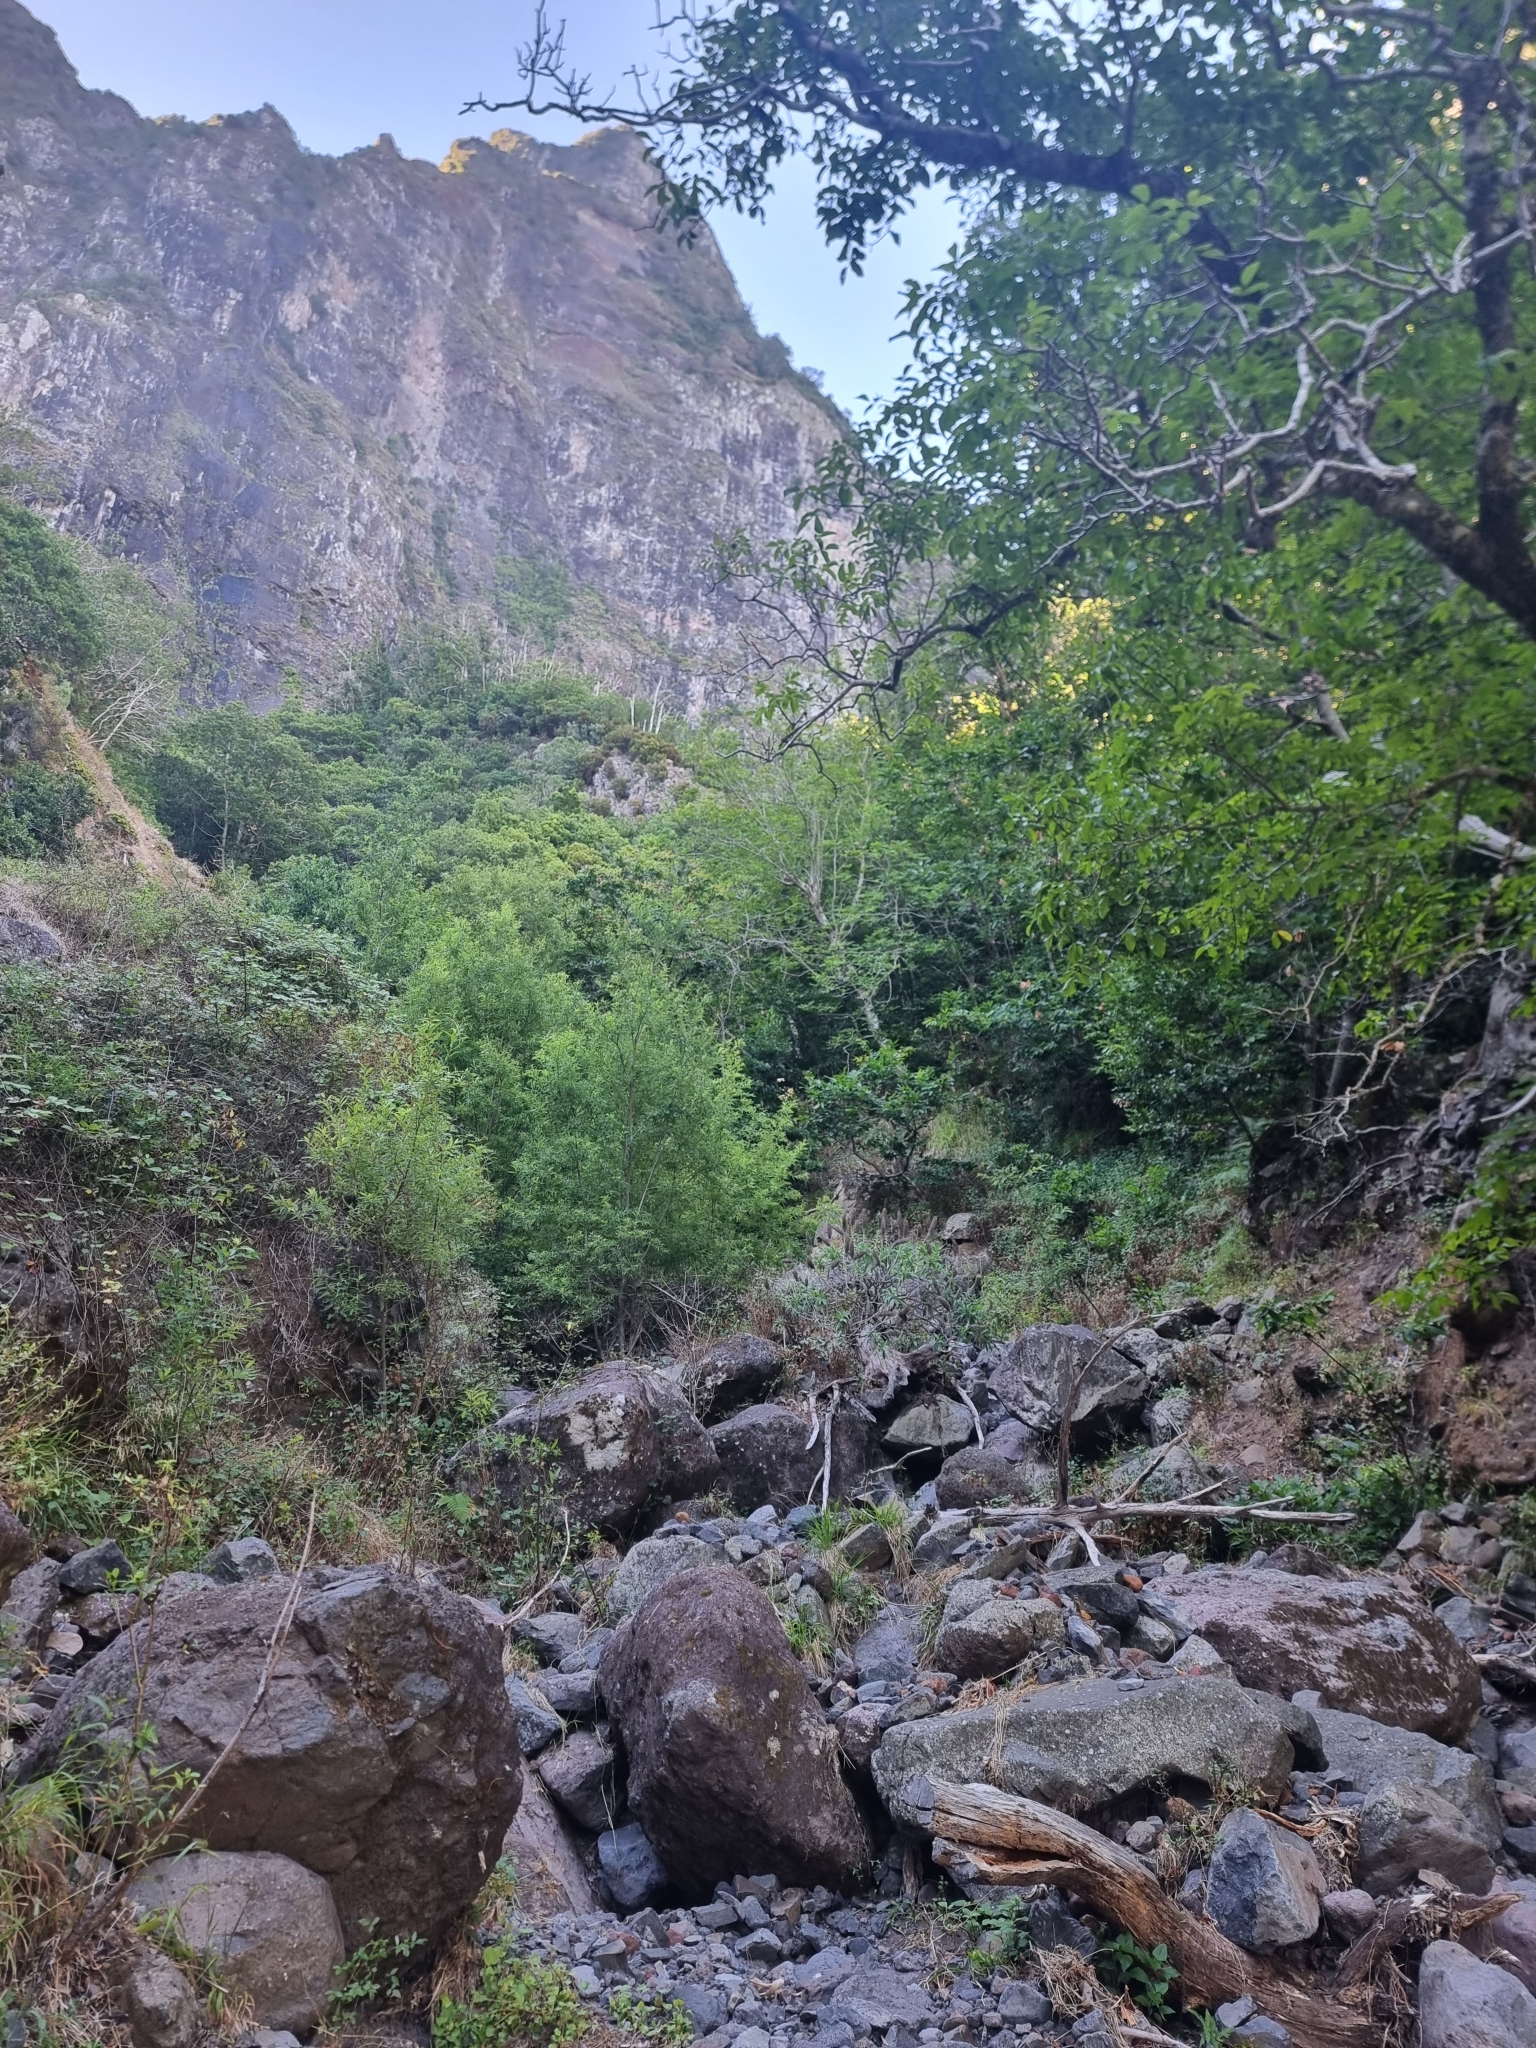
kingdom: Plantae
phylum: Tracheophyta
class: Magnoliopsida
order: Boraginales
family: Boraginaceae
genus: Echium
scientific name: Echium candicans
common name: Pride of madeira
